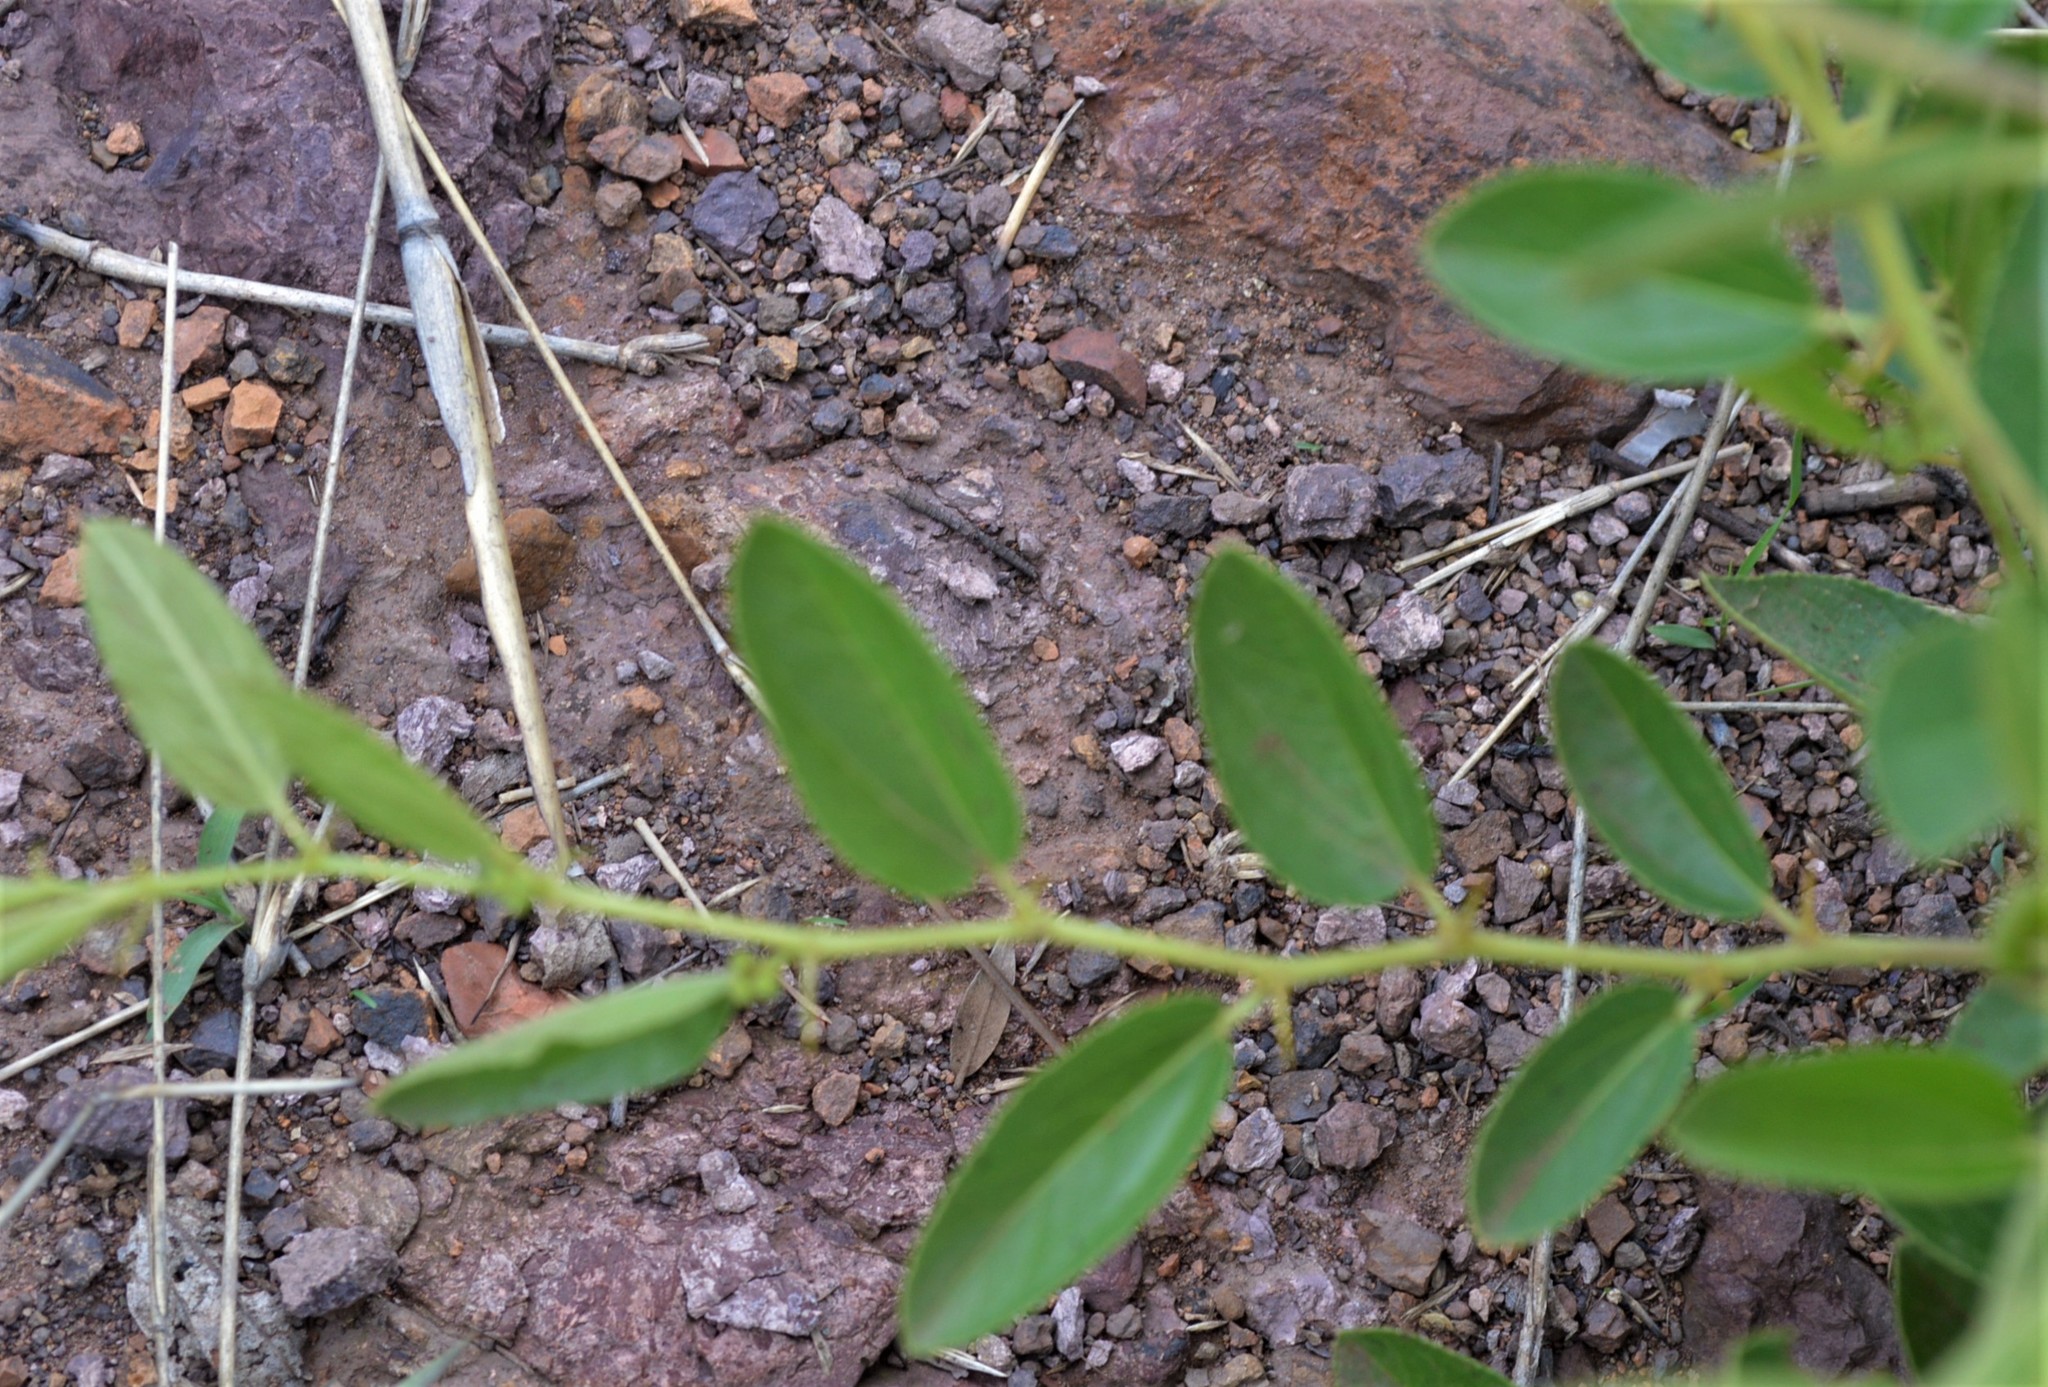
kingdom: Plantae
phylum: Tracheophyta
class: Magnoliopsida
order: Rosales
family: Rhamnaceae
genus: Ziziphus
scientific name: Ziziphus zeyheriana
